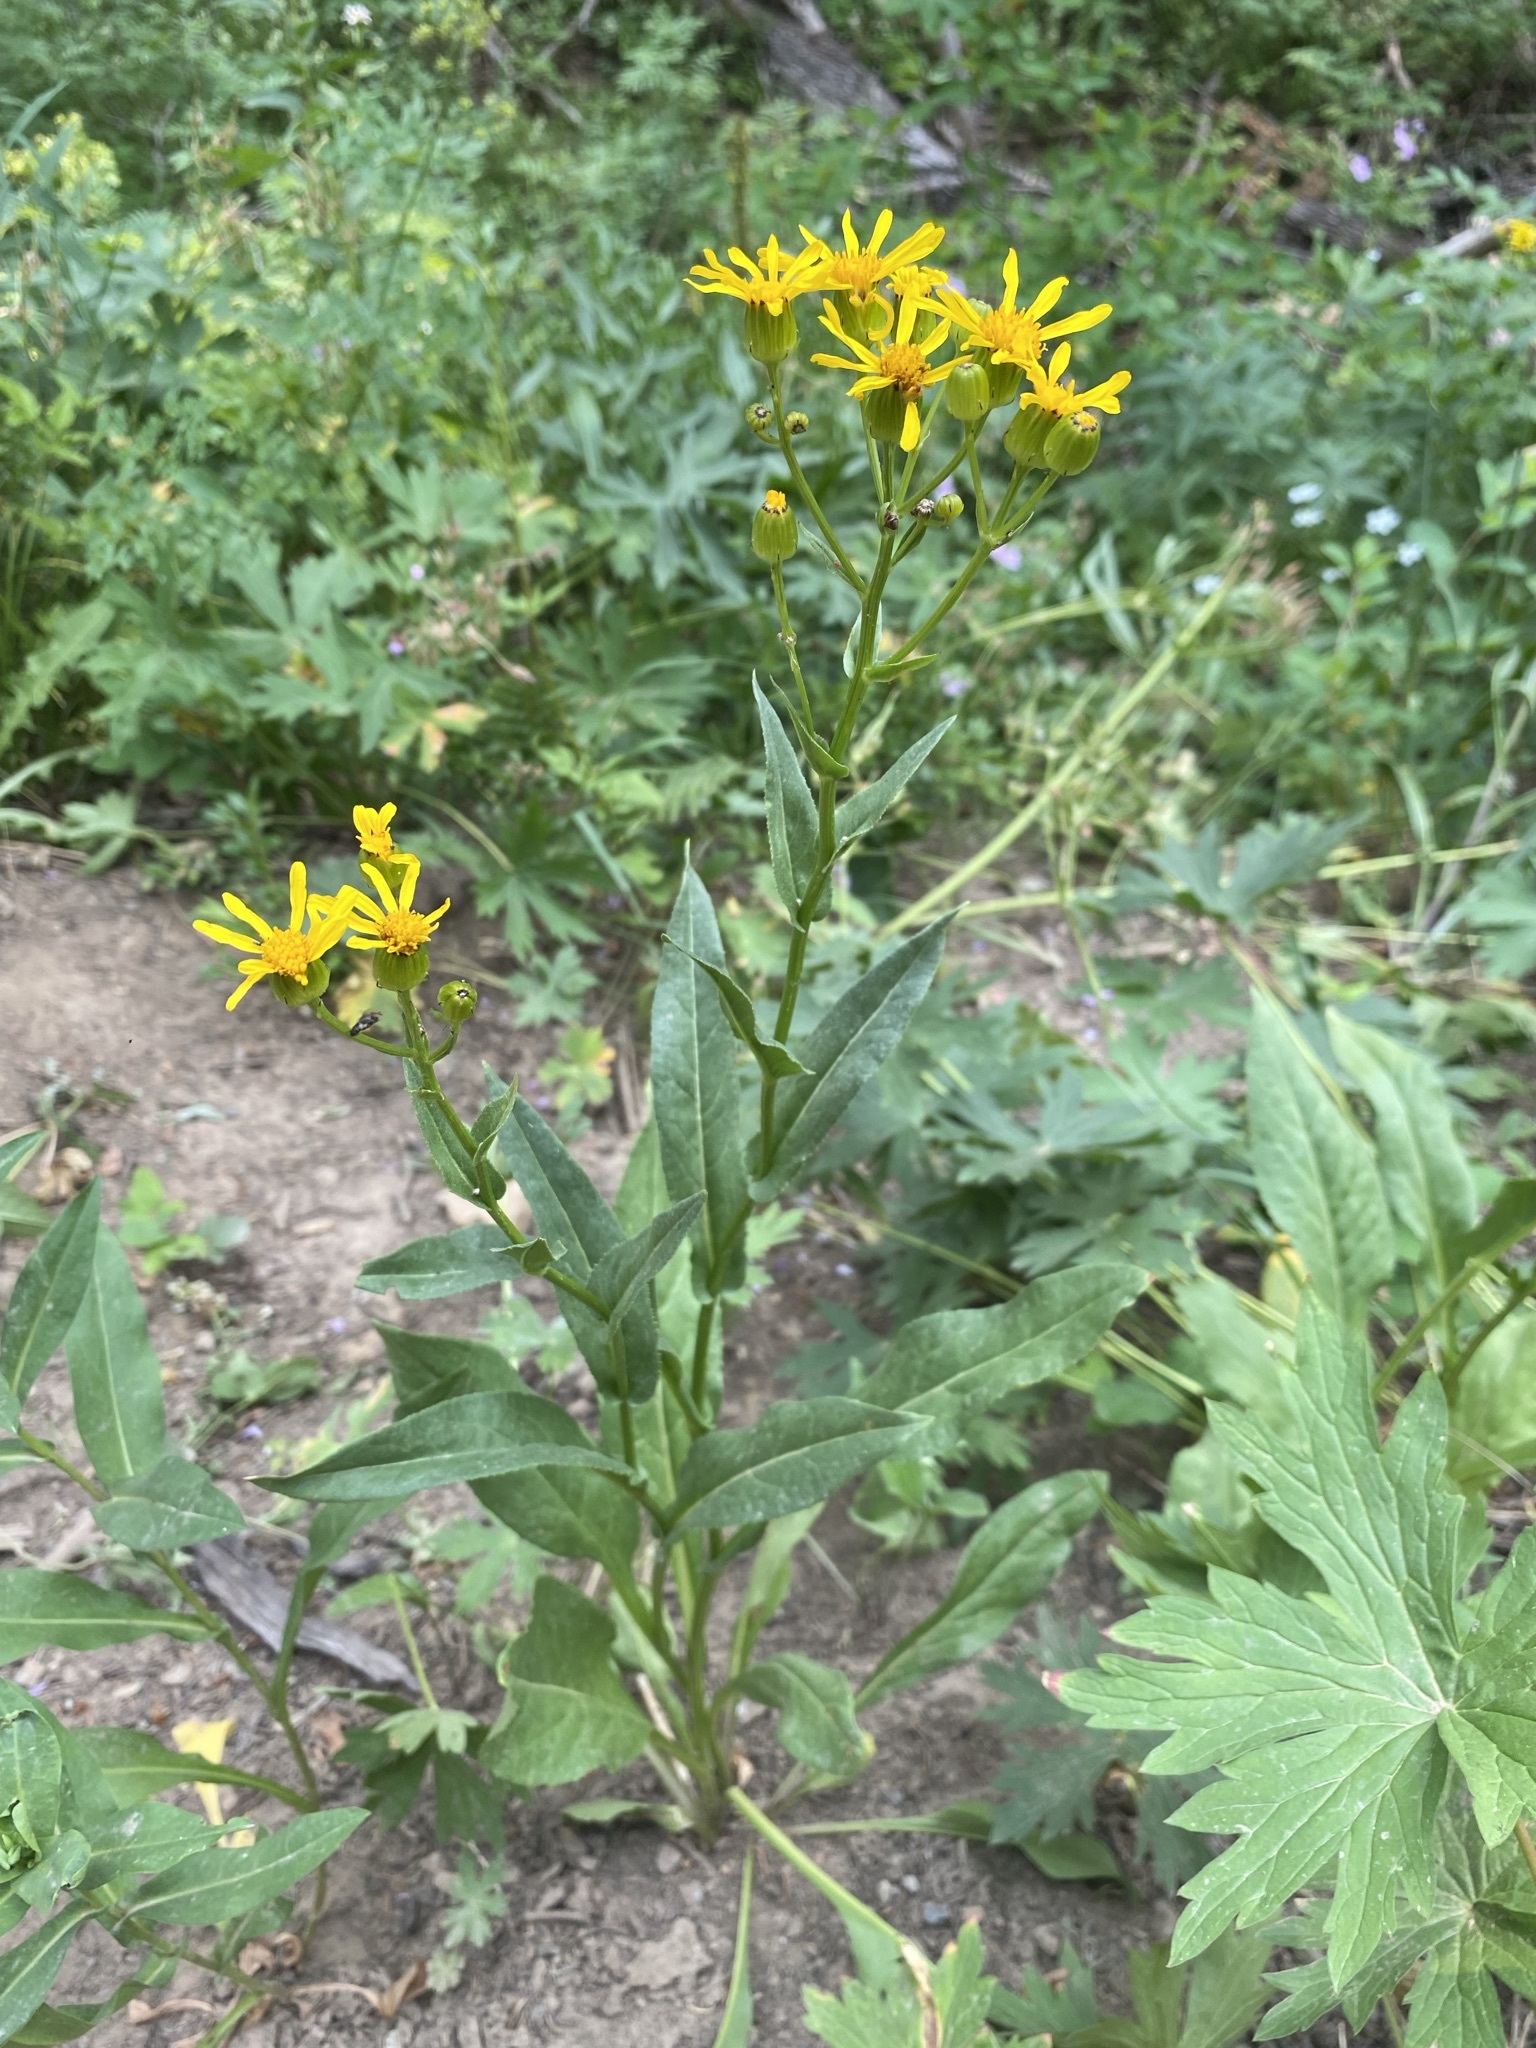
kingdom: Plantae
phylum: Tracheophyta
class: Magnoliopsida
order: Asterales
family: Asteraceae
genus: Senecio
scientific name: Senecio crassulus
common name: Mountain-meadow butterweed
